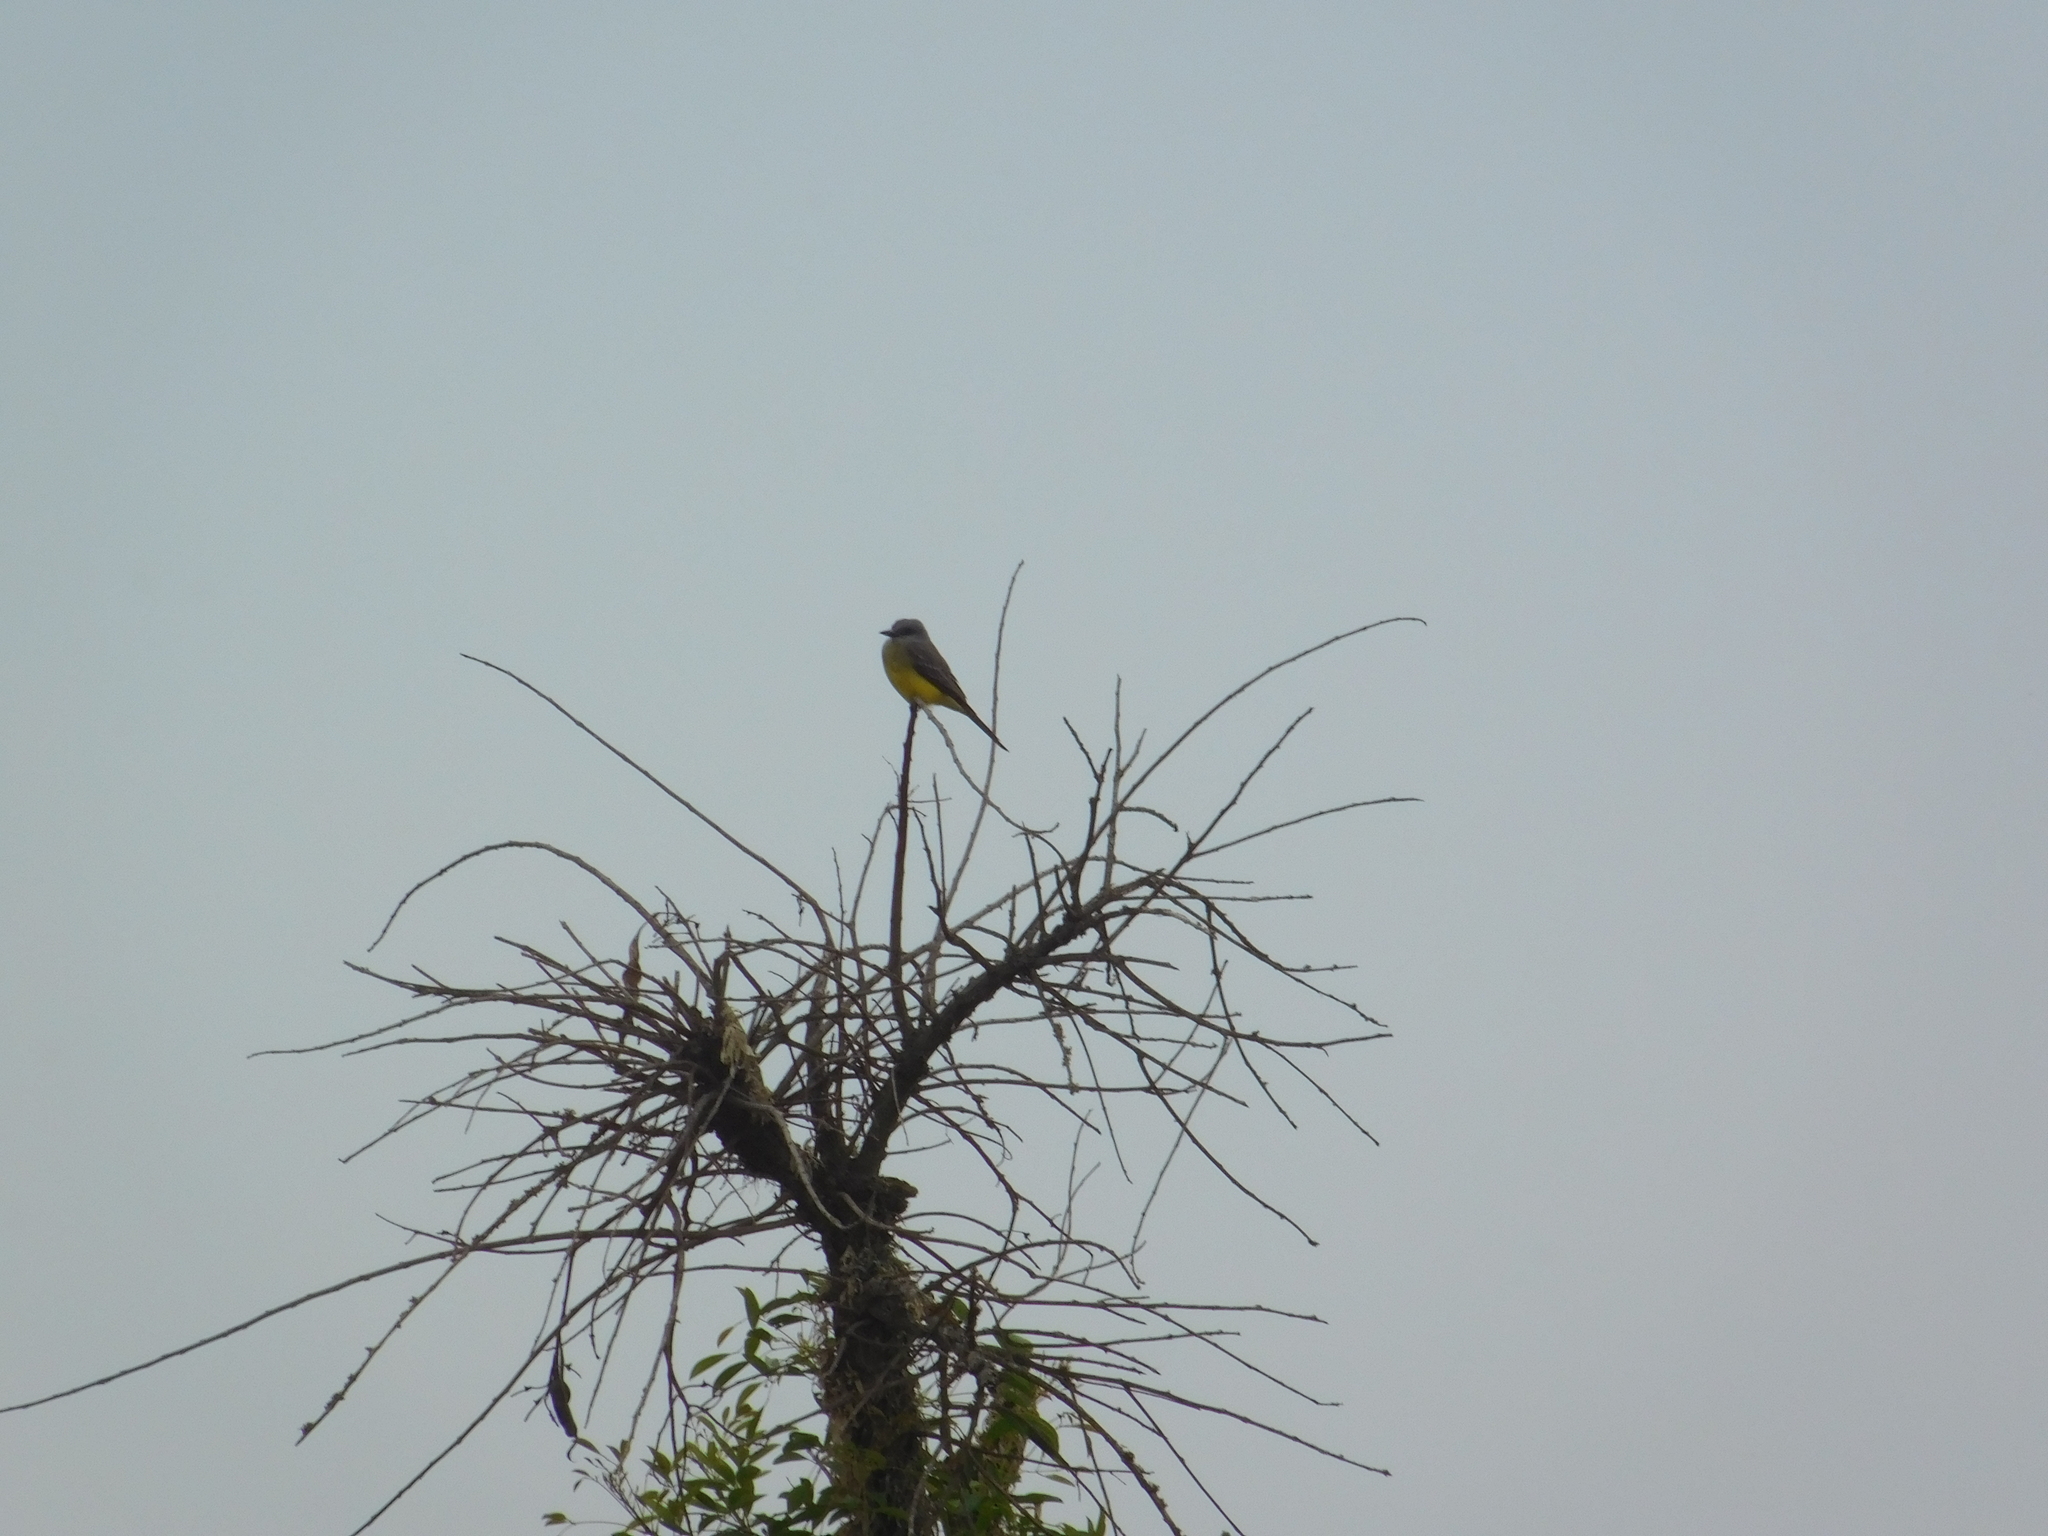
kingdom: Animalia
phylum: Chordata
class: Aves
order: Passeriformes
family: Tyrannidae
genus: Tyrannus
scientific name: Tyrannus melancholicus
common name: Tropical kingbird
